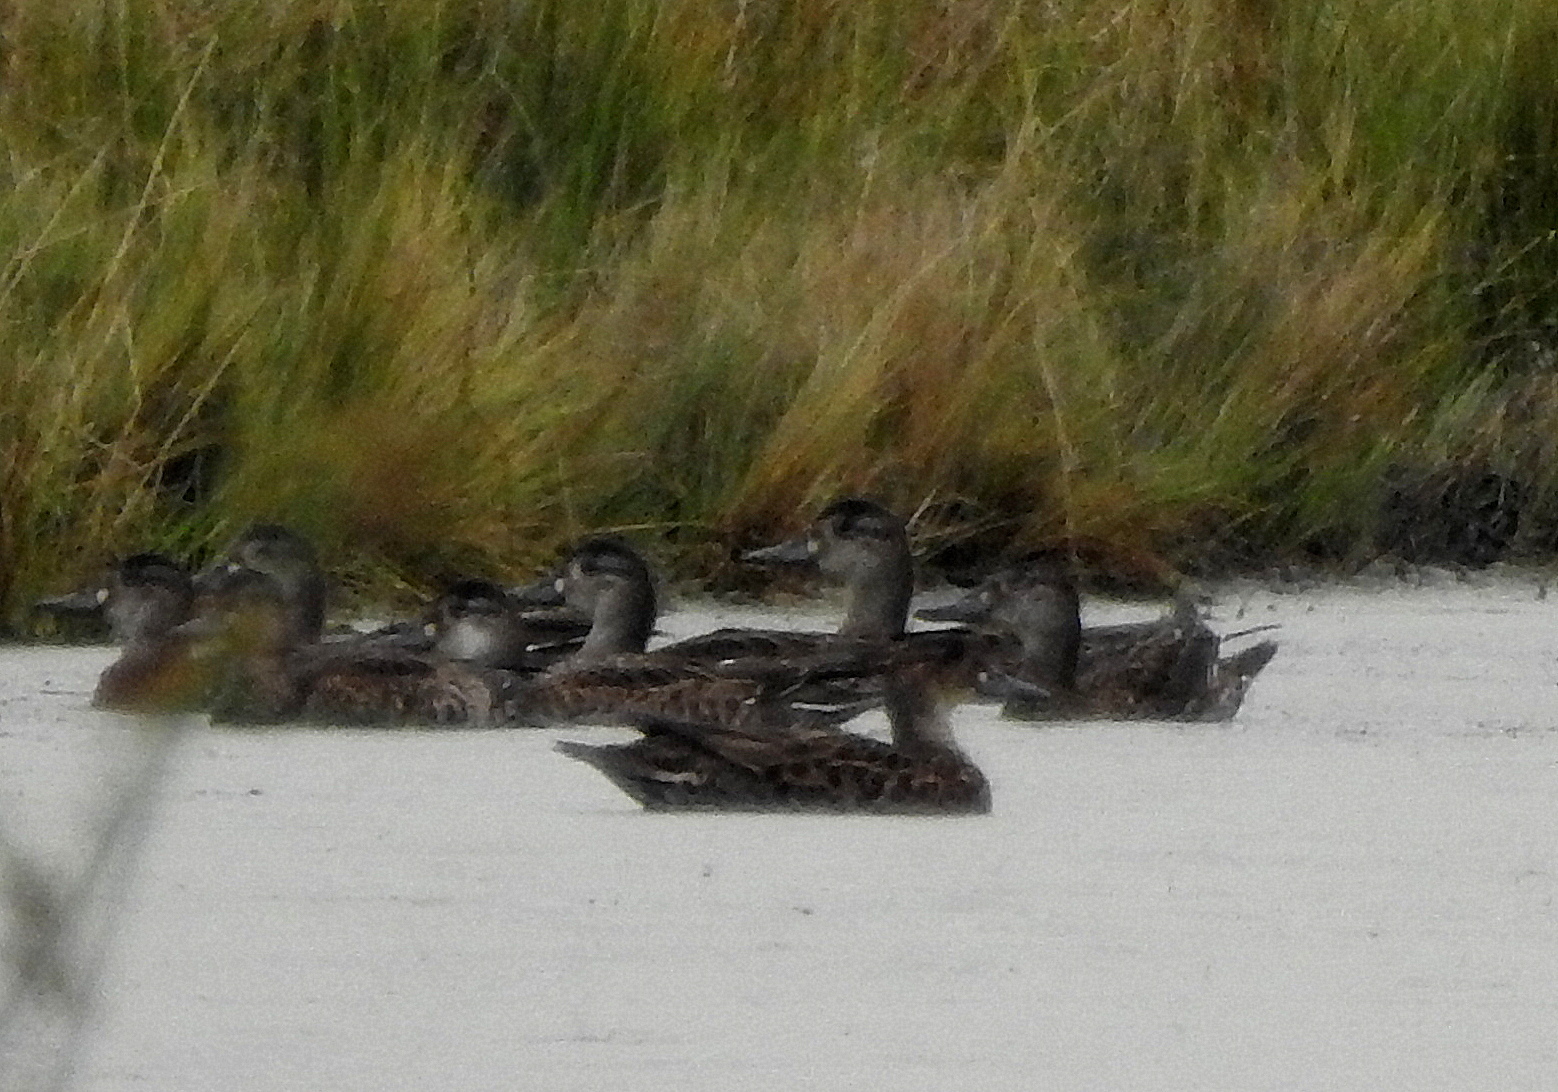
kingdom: Animalia
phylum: Chordata
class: Aves
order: Anseriformes
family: Anatidae
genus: Sibirionetta
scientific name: Sibirionetta formosa
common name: Baikal teal
